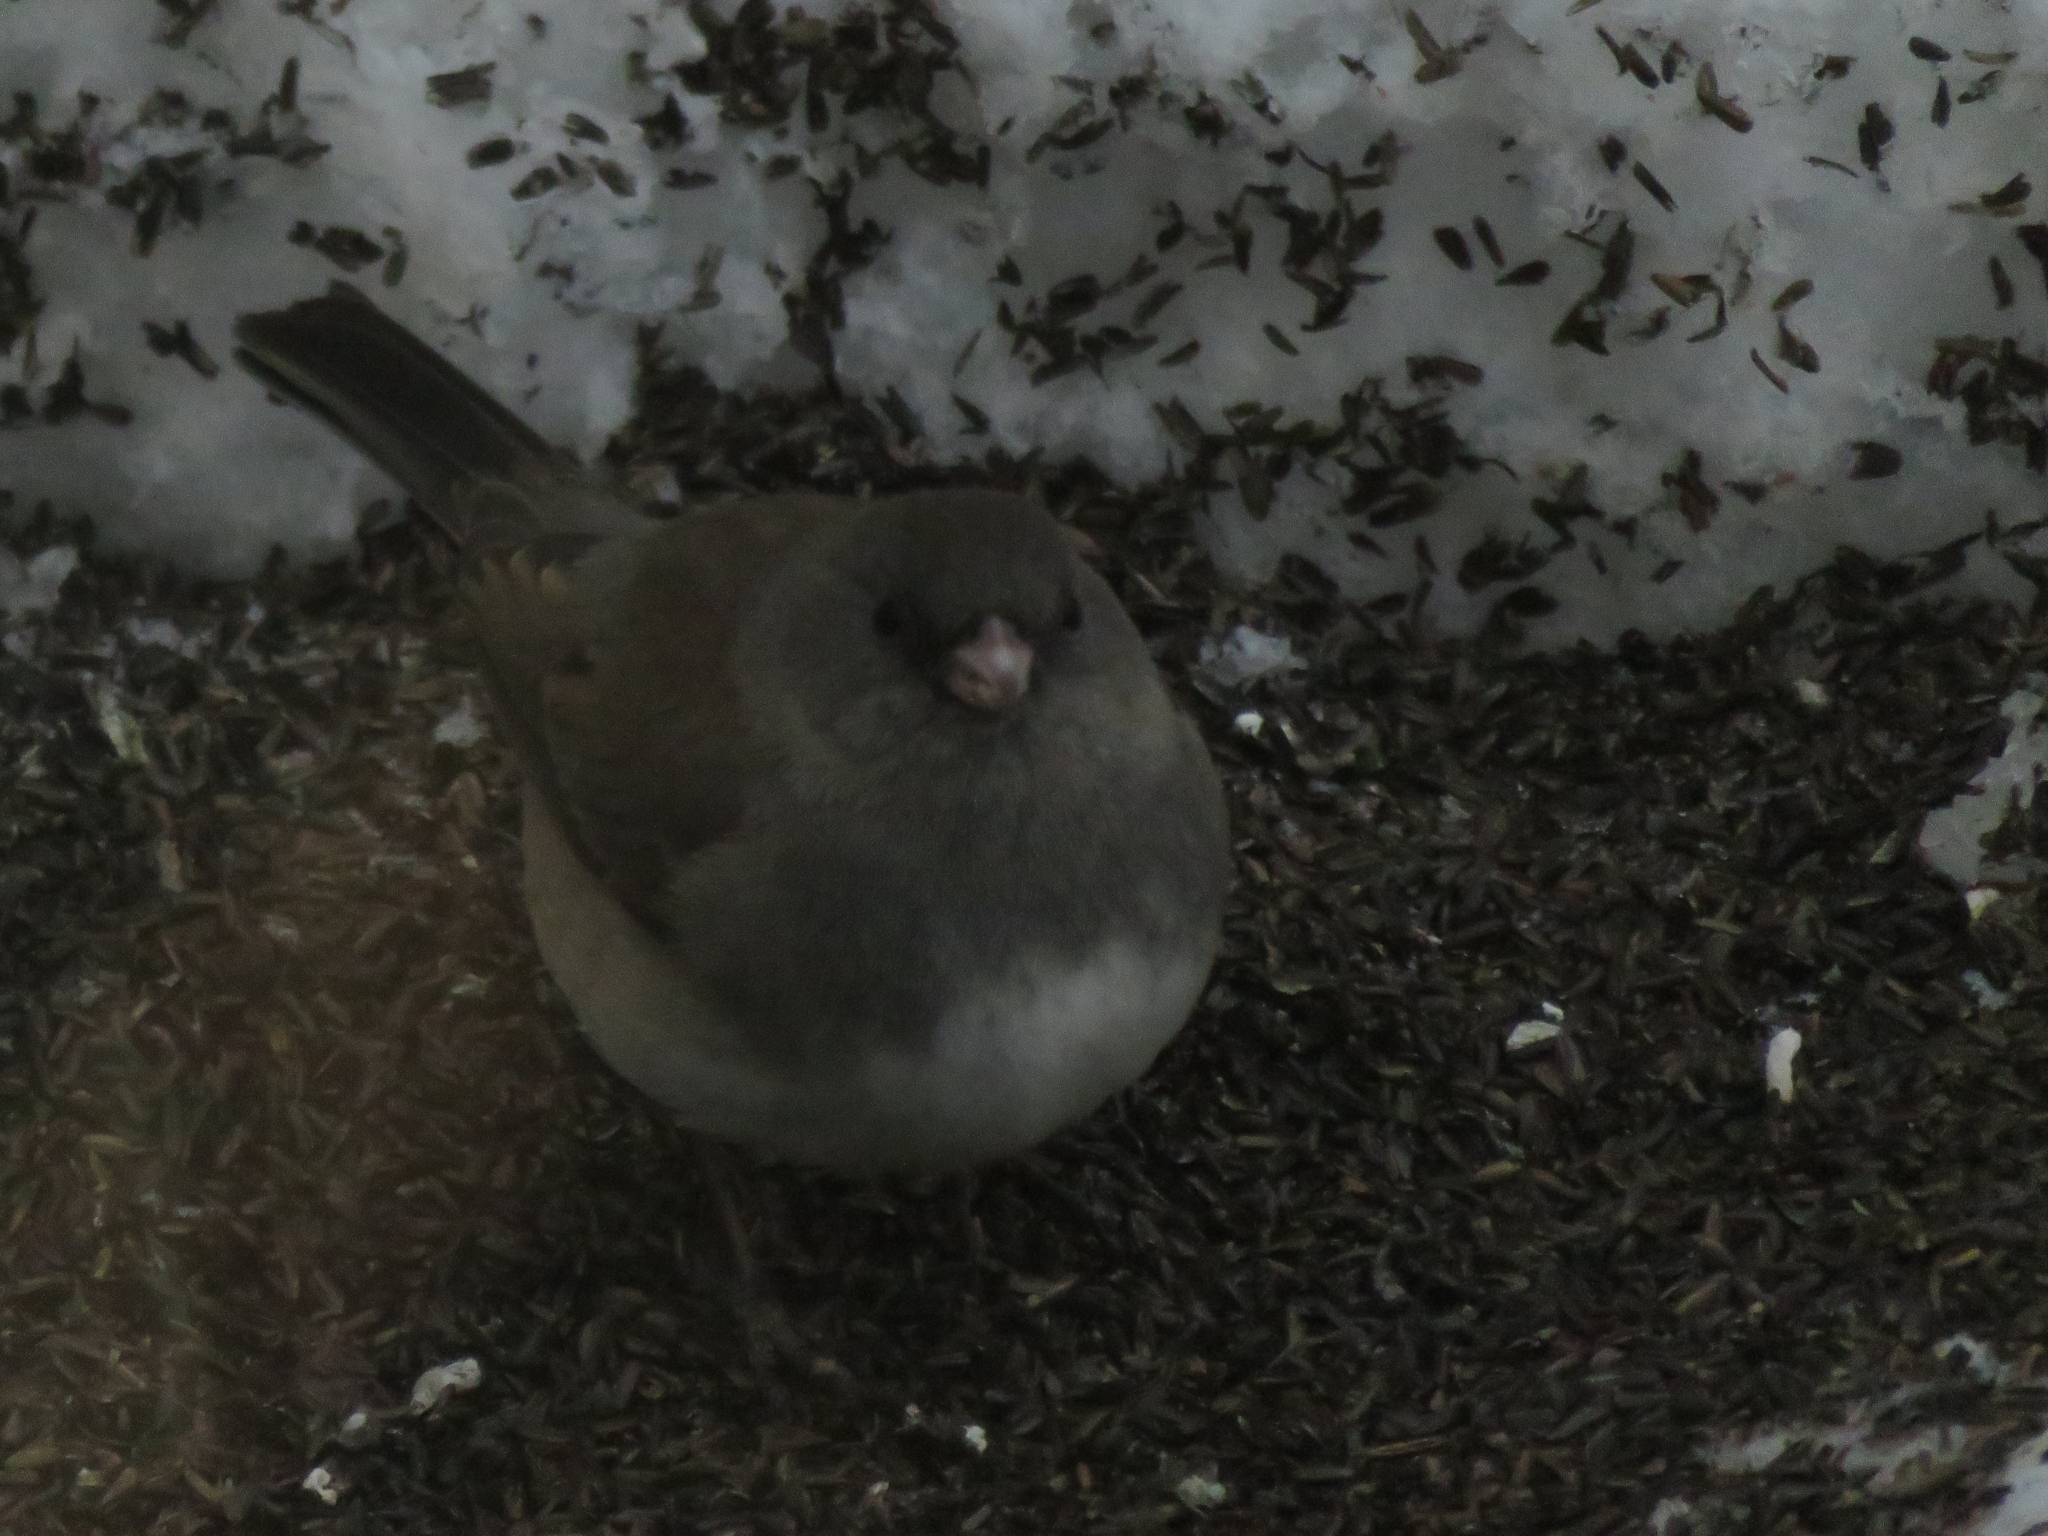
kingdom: Animalia
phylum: Chordata
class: Aves
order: Passeriformes
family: Passerellidae
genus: Junco
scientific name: Junco hyemalis
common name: Dark-eyed junco
